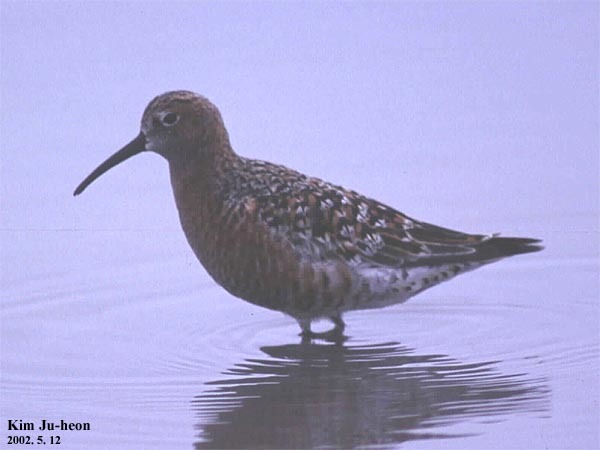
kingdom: Animalia
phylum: Chordata
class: Aves
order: Charadriiformes
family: Scolopacidae
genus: Calidris
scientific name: Calidris ferruginea
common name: Curlew sandpiper
